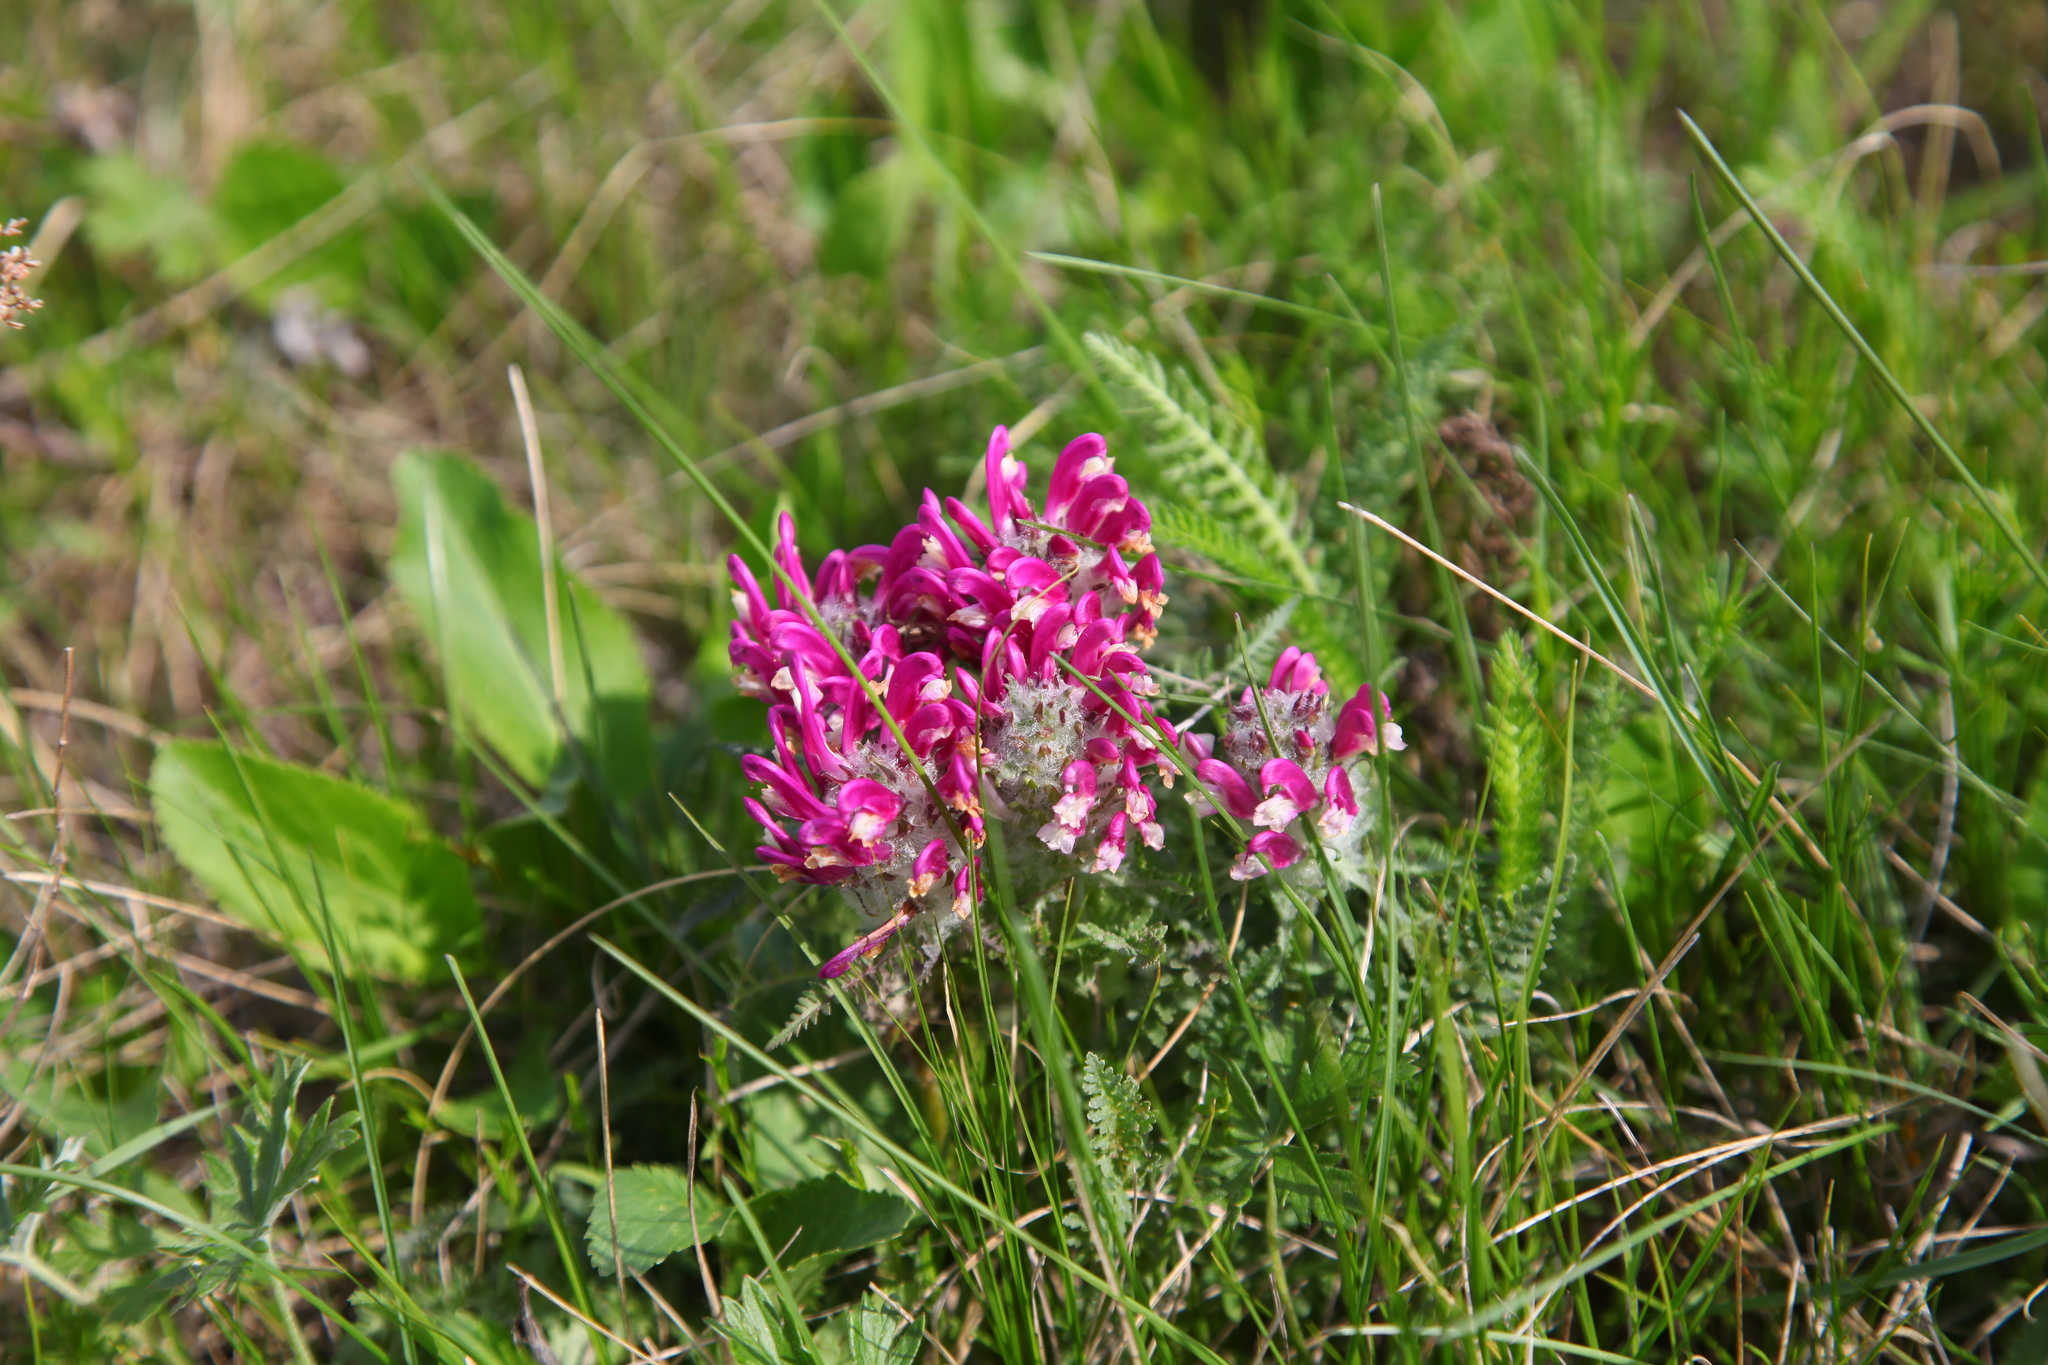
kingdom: Plantae
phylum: Tracheophyta
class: Magnoliopsida
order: Lamiales
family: Orobanchaceae
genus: Pedicularis
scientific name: Pedicularis dasystachys
